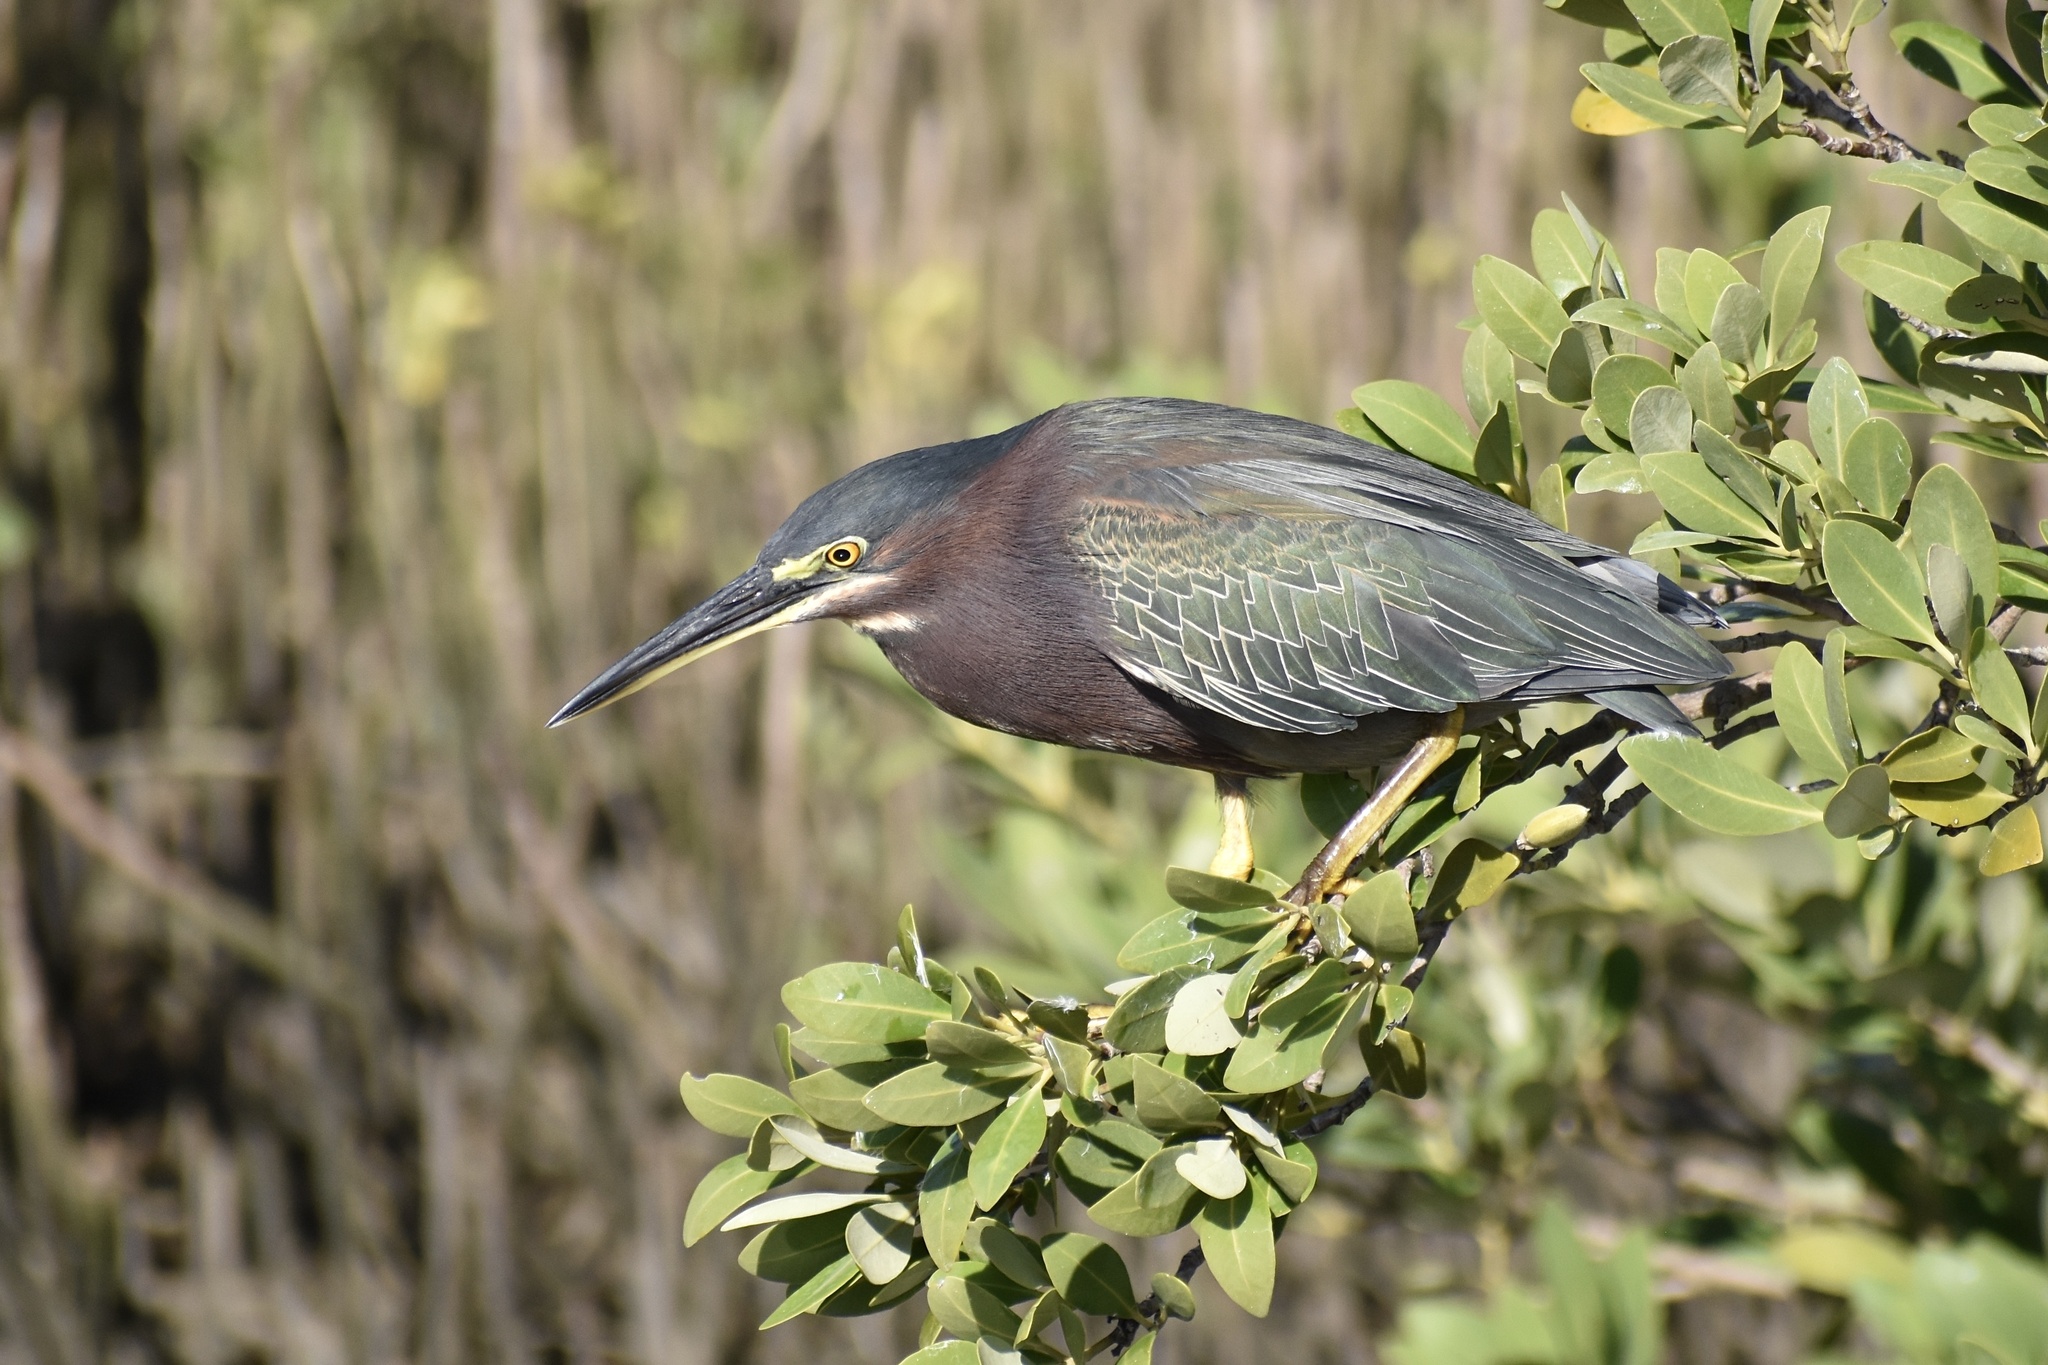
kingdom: Animalia
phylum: Chordata
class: Aves
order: Pelecaniformes
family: Ardeidae
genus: Butorides
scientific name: Butorides virescens
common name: Green heron
